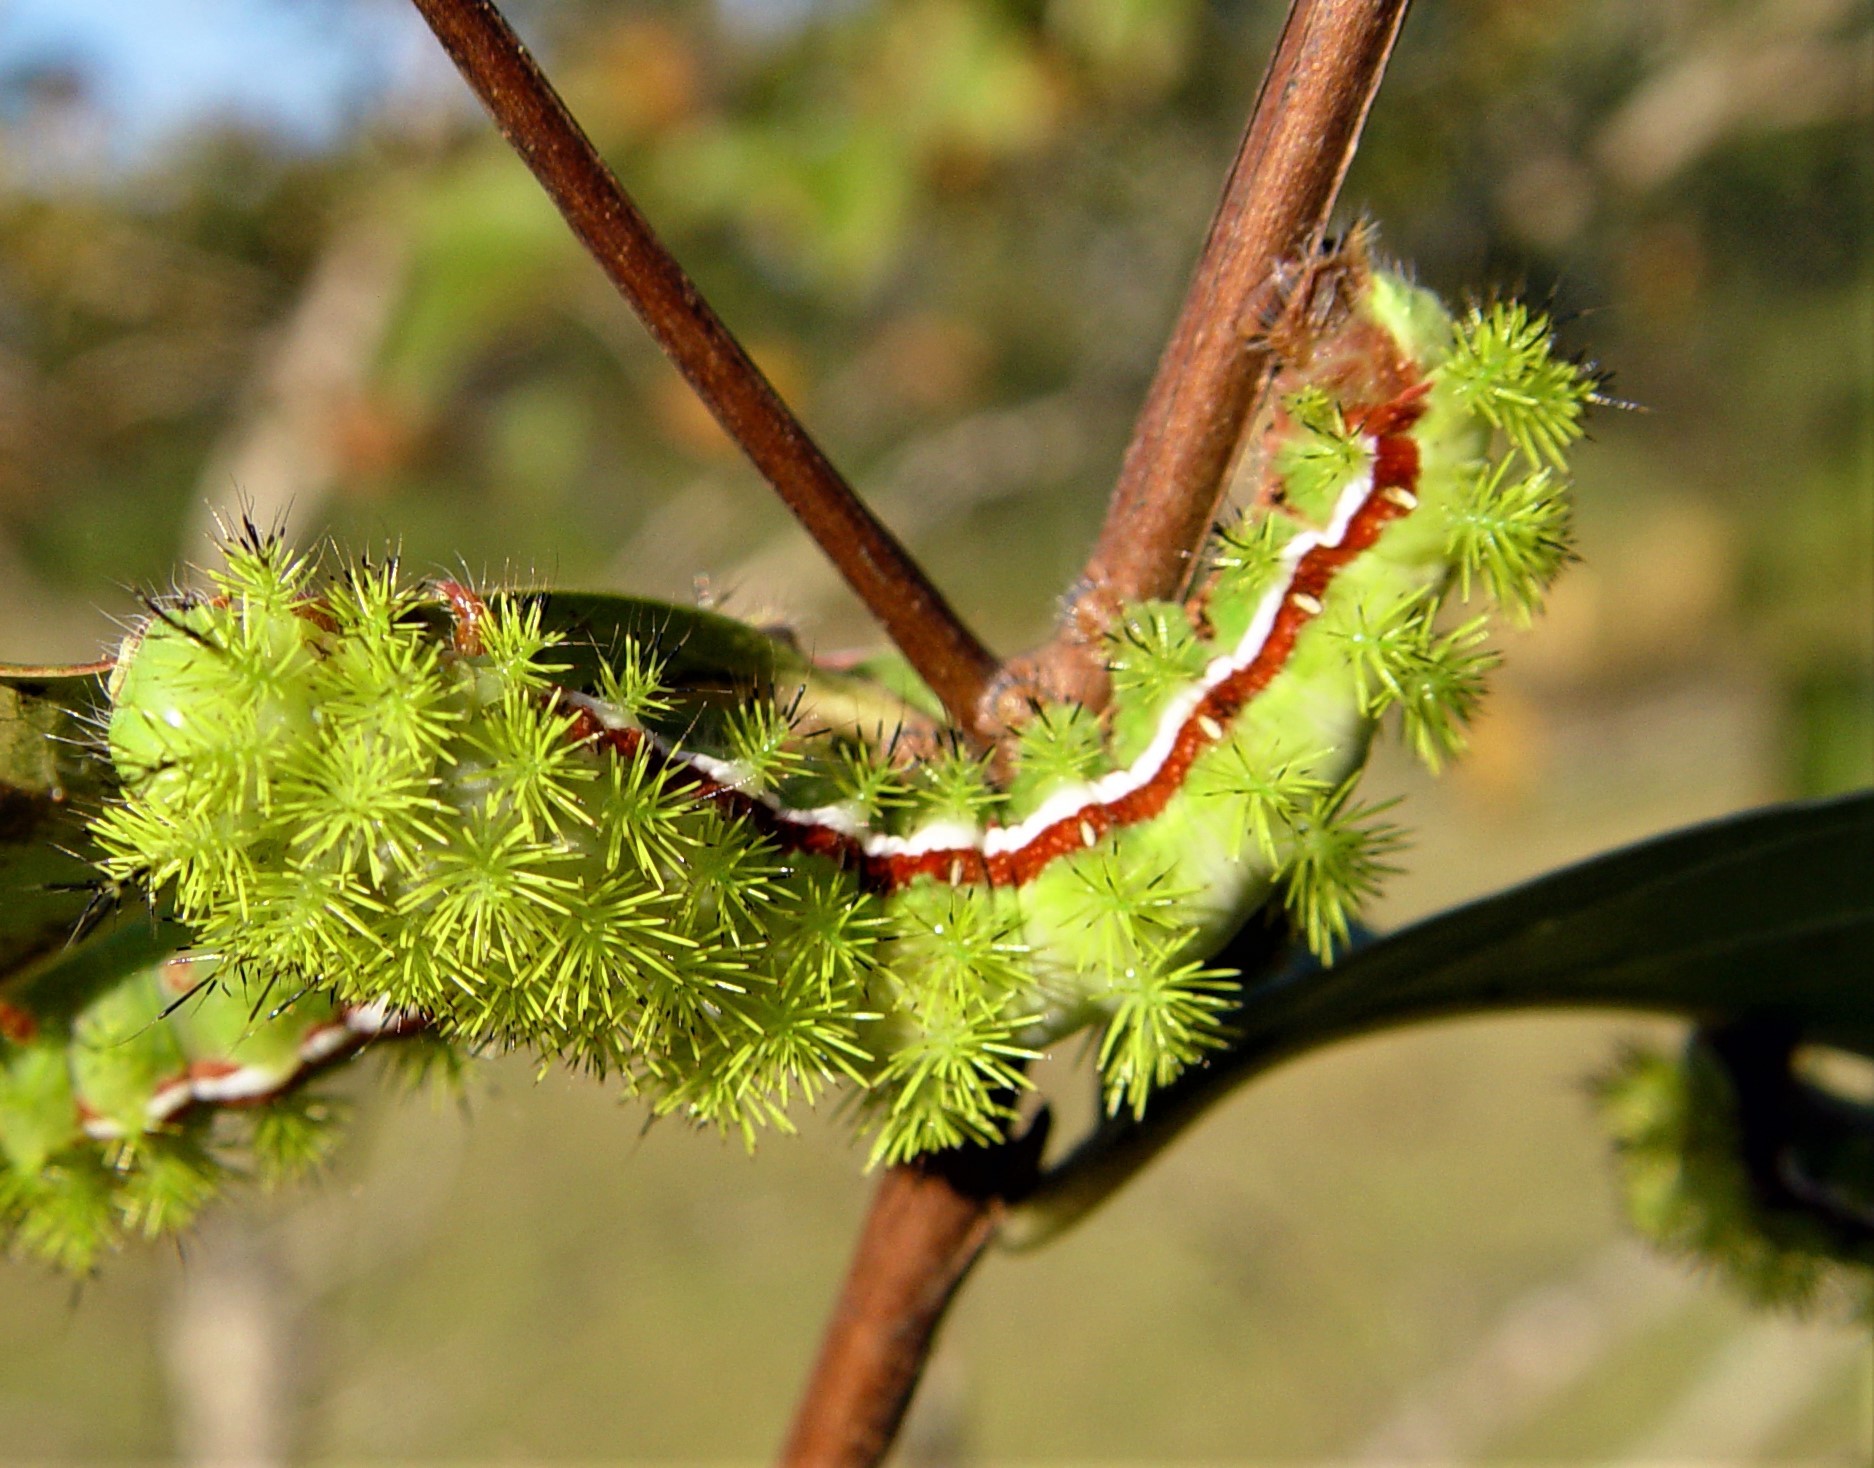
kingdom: Animalia
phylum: Arthropoda
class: Insecta
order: Lepidoptera
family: Saturniidae
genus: Automeris
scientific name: Automeris io
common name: Io moth
